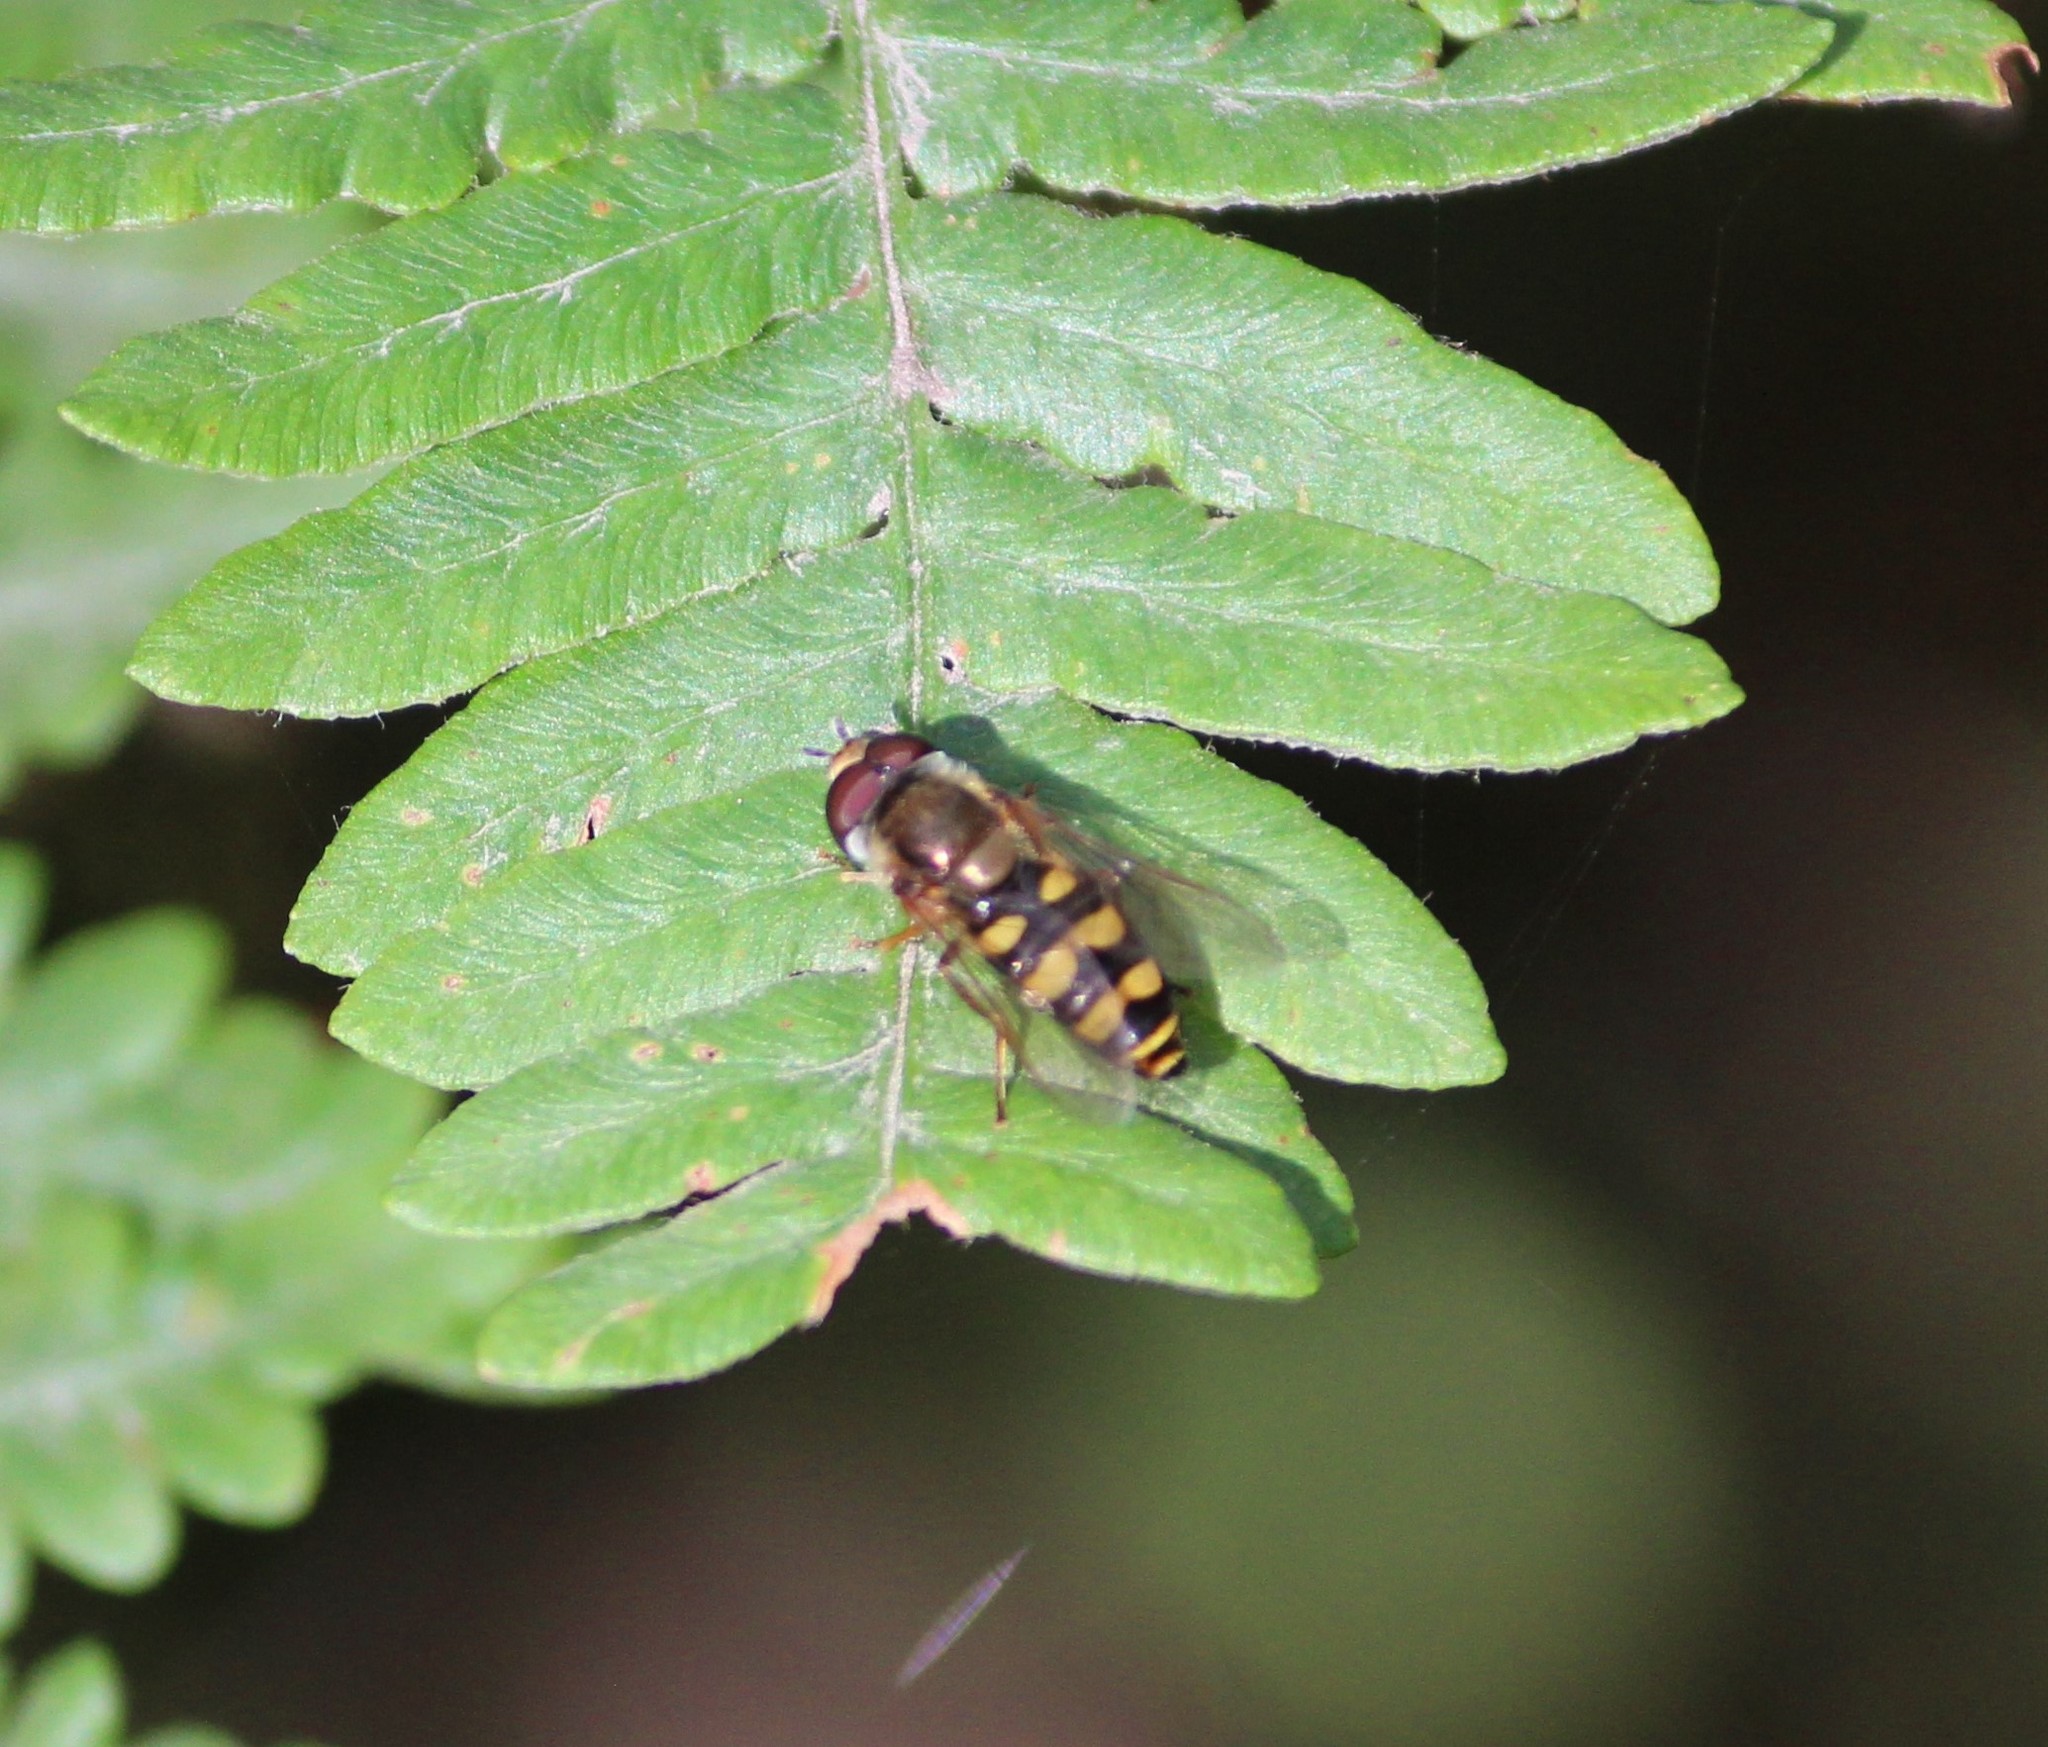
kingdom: Animalia
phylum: Arthropoda
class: Insecta
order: Diptera
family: Syrphidae
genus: Eupeodes
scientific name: Eupeodes fumipennis
